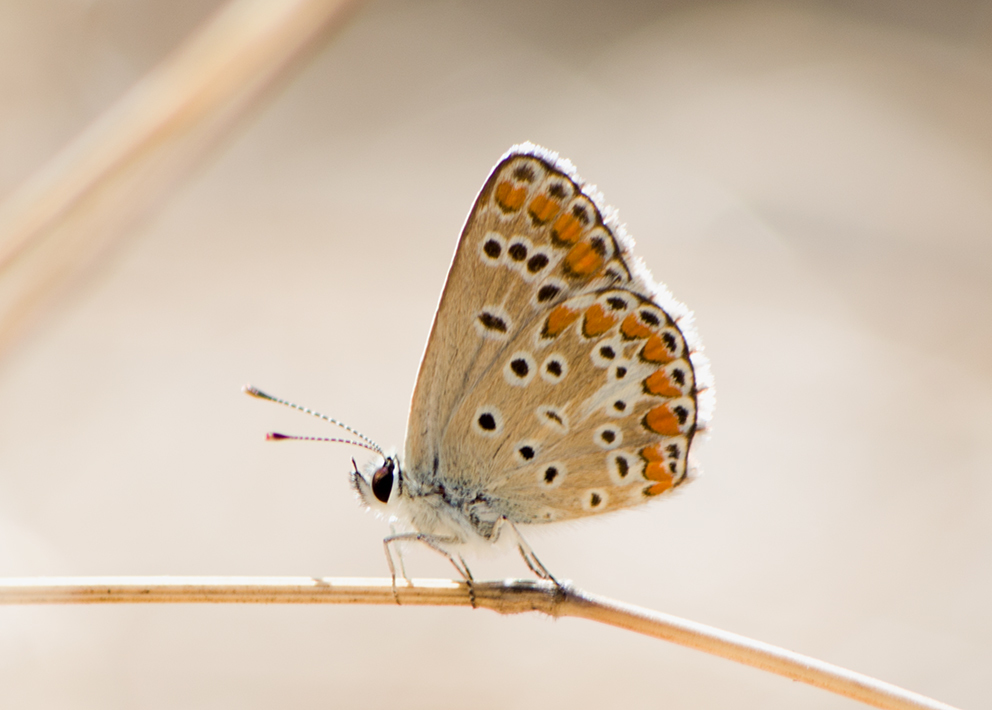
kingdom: Animalia
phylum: Arthropoda
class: Insecta
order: Lepidoptera
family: Lycaenidae
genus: Aricia
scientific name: Aricia agestis
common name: Brown argus
